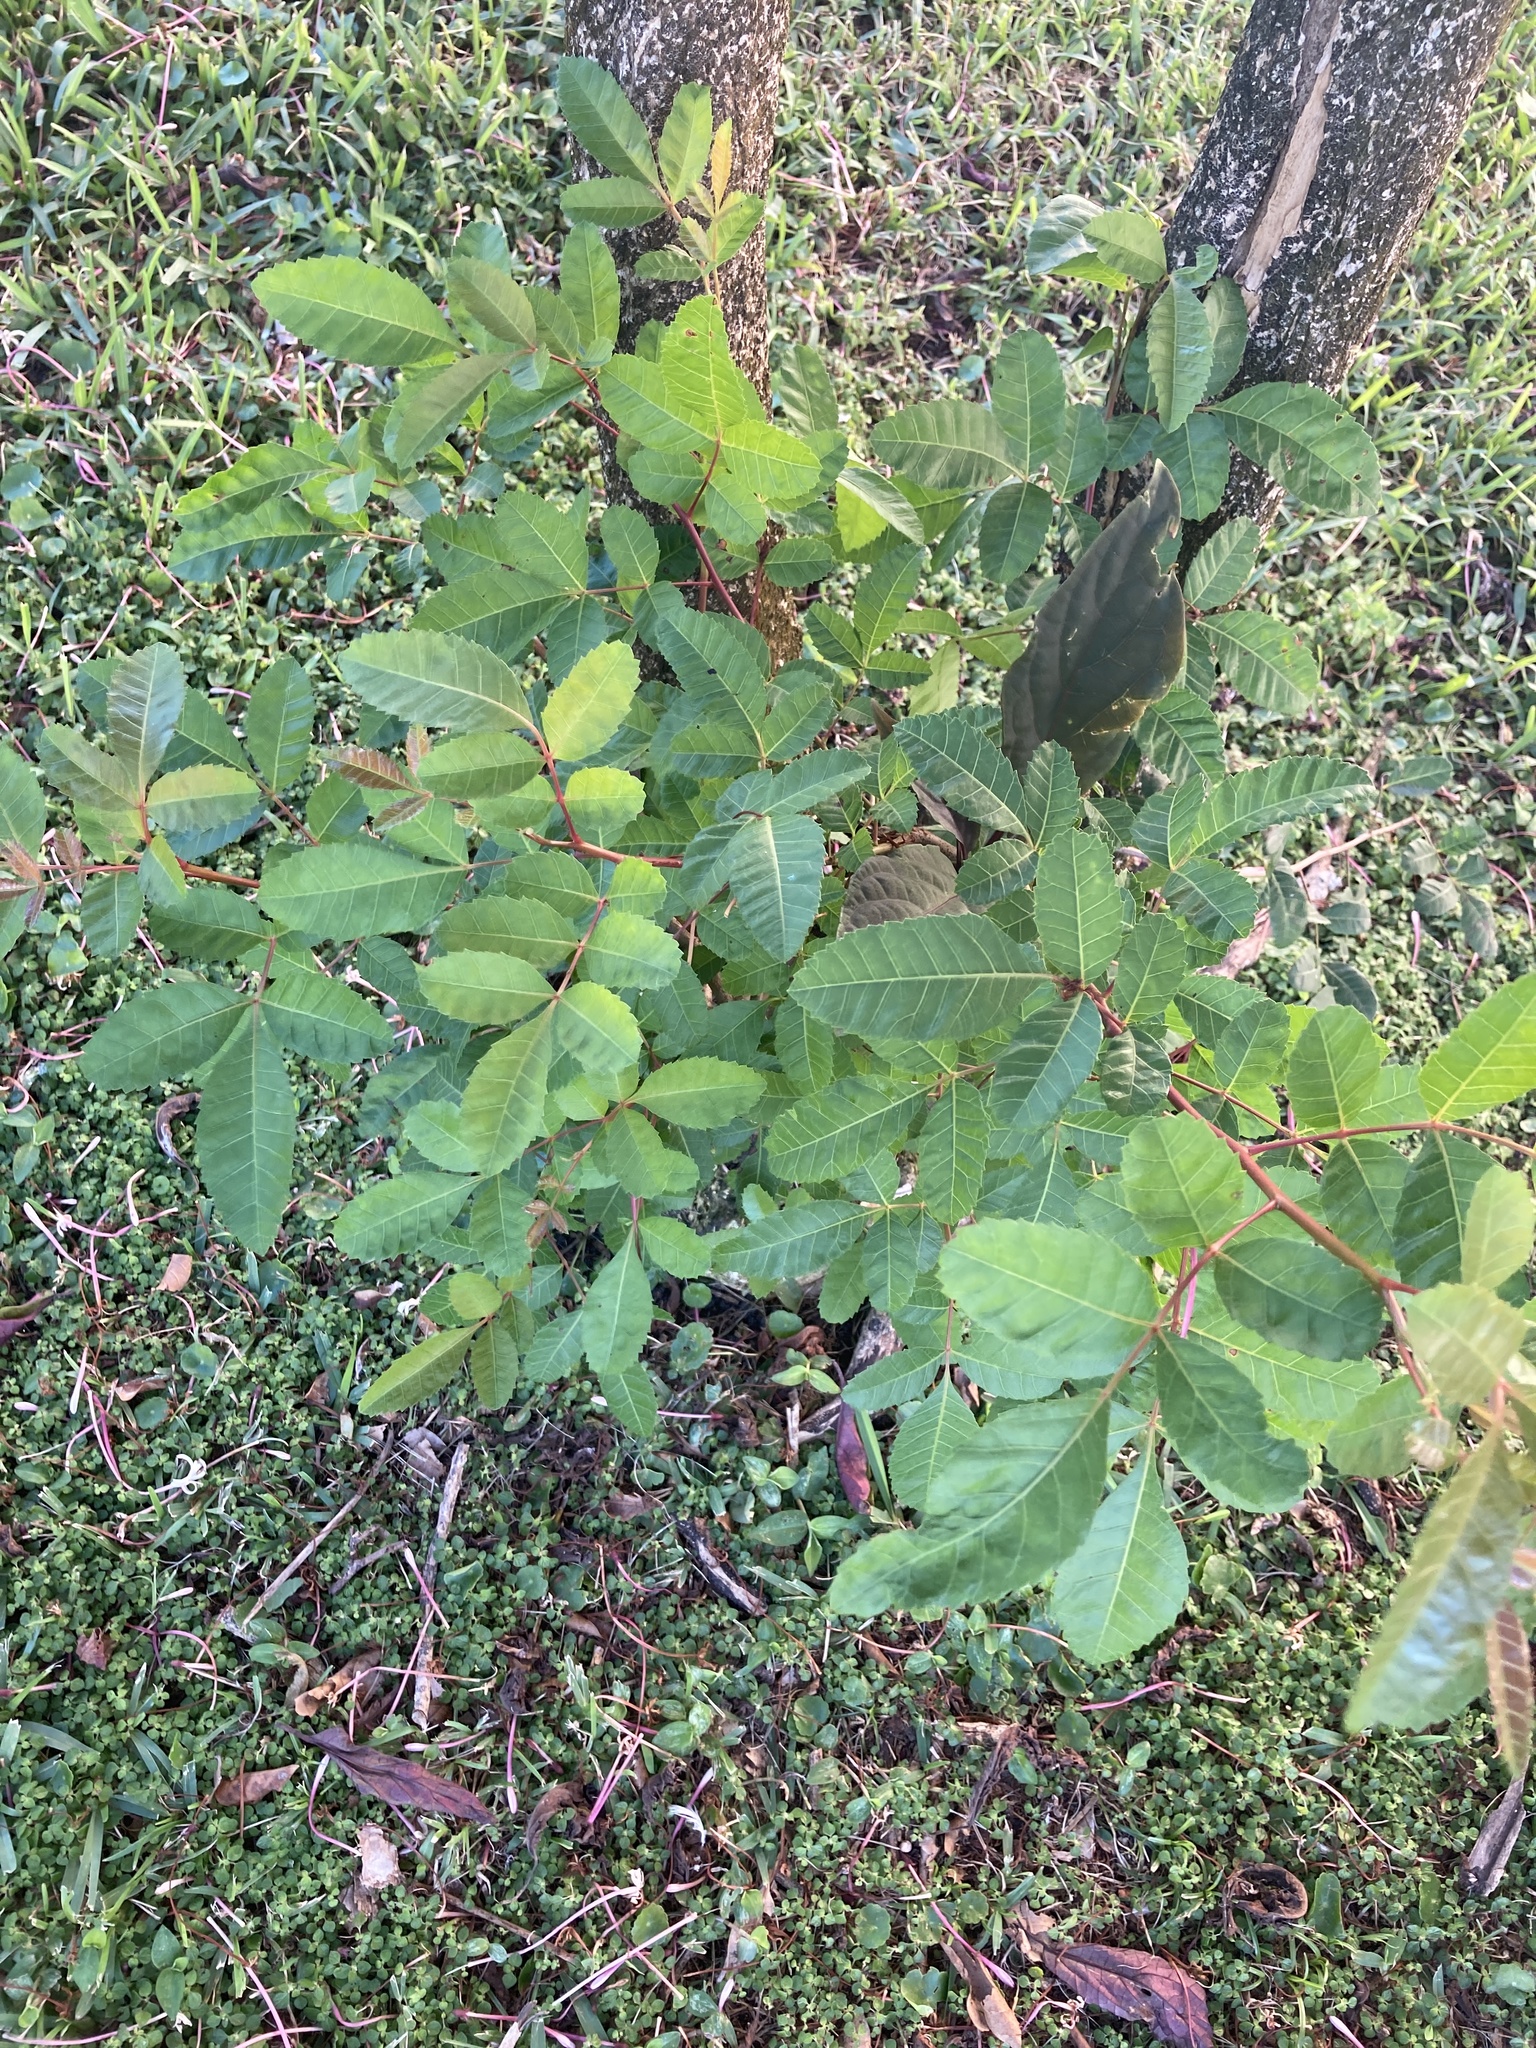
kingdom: Plantae
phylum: Tracheophyta
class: Magnoliopsida
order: Sapindales
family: Anacardiaceae
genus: Schinus
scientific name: Schinus terebinthifolia
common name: Brazilian peppertree
